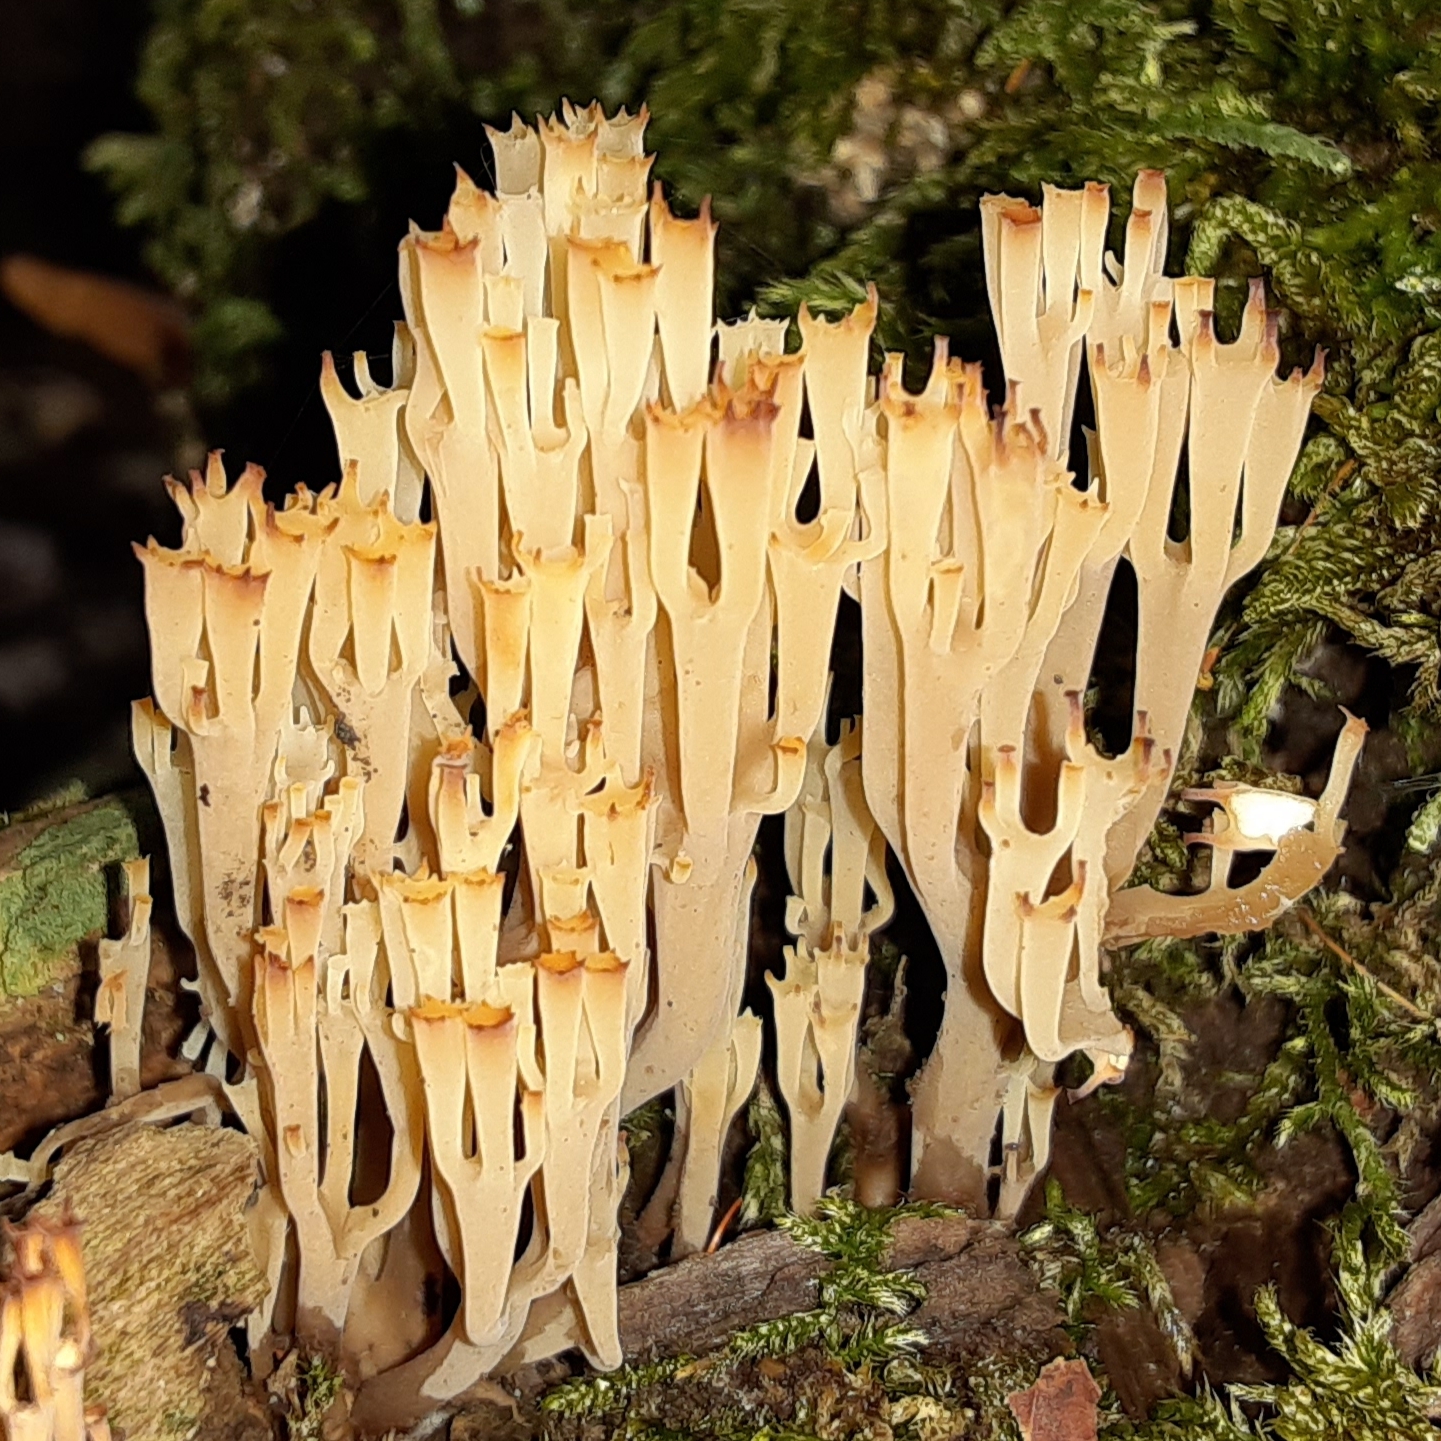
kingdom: Fungi
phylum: Basidiomycota
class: Agaricomycetes
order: Russulales
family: Auriscalpiaceae
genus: Artomyces
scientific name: Artomyces pyxidatus
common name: Crown-tipped coral fungus
